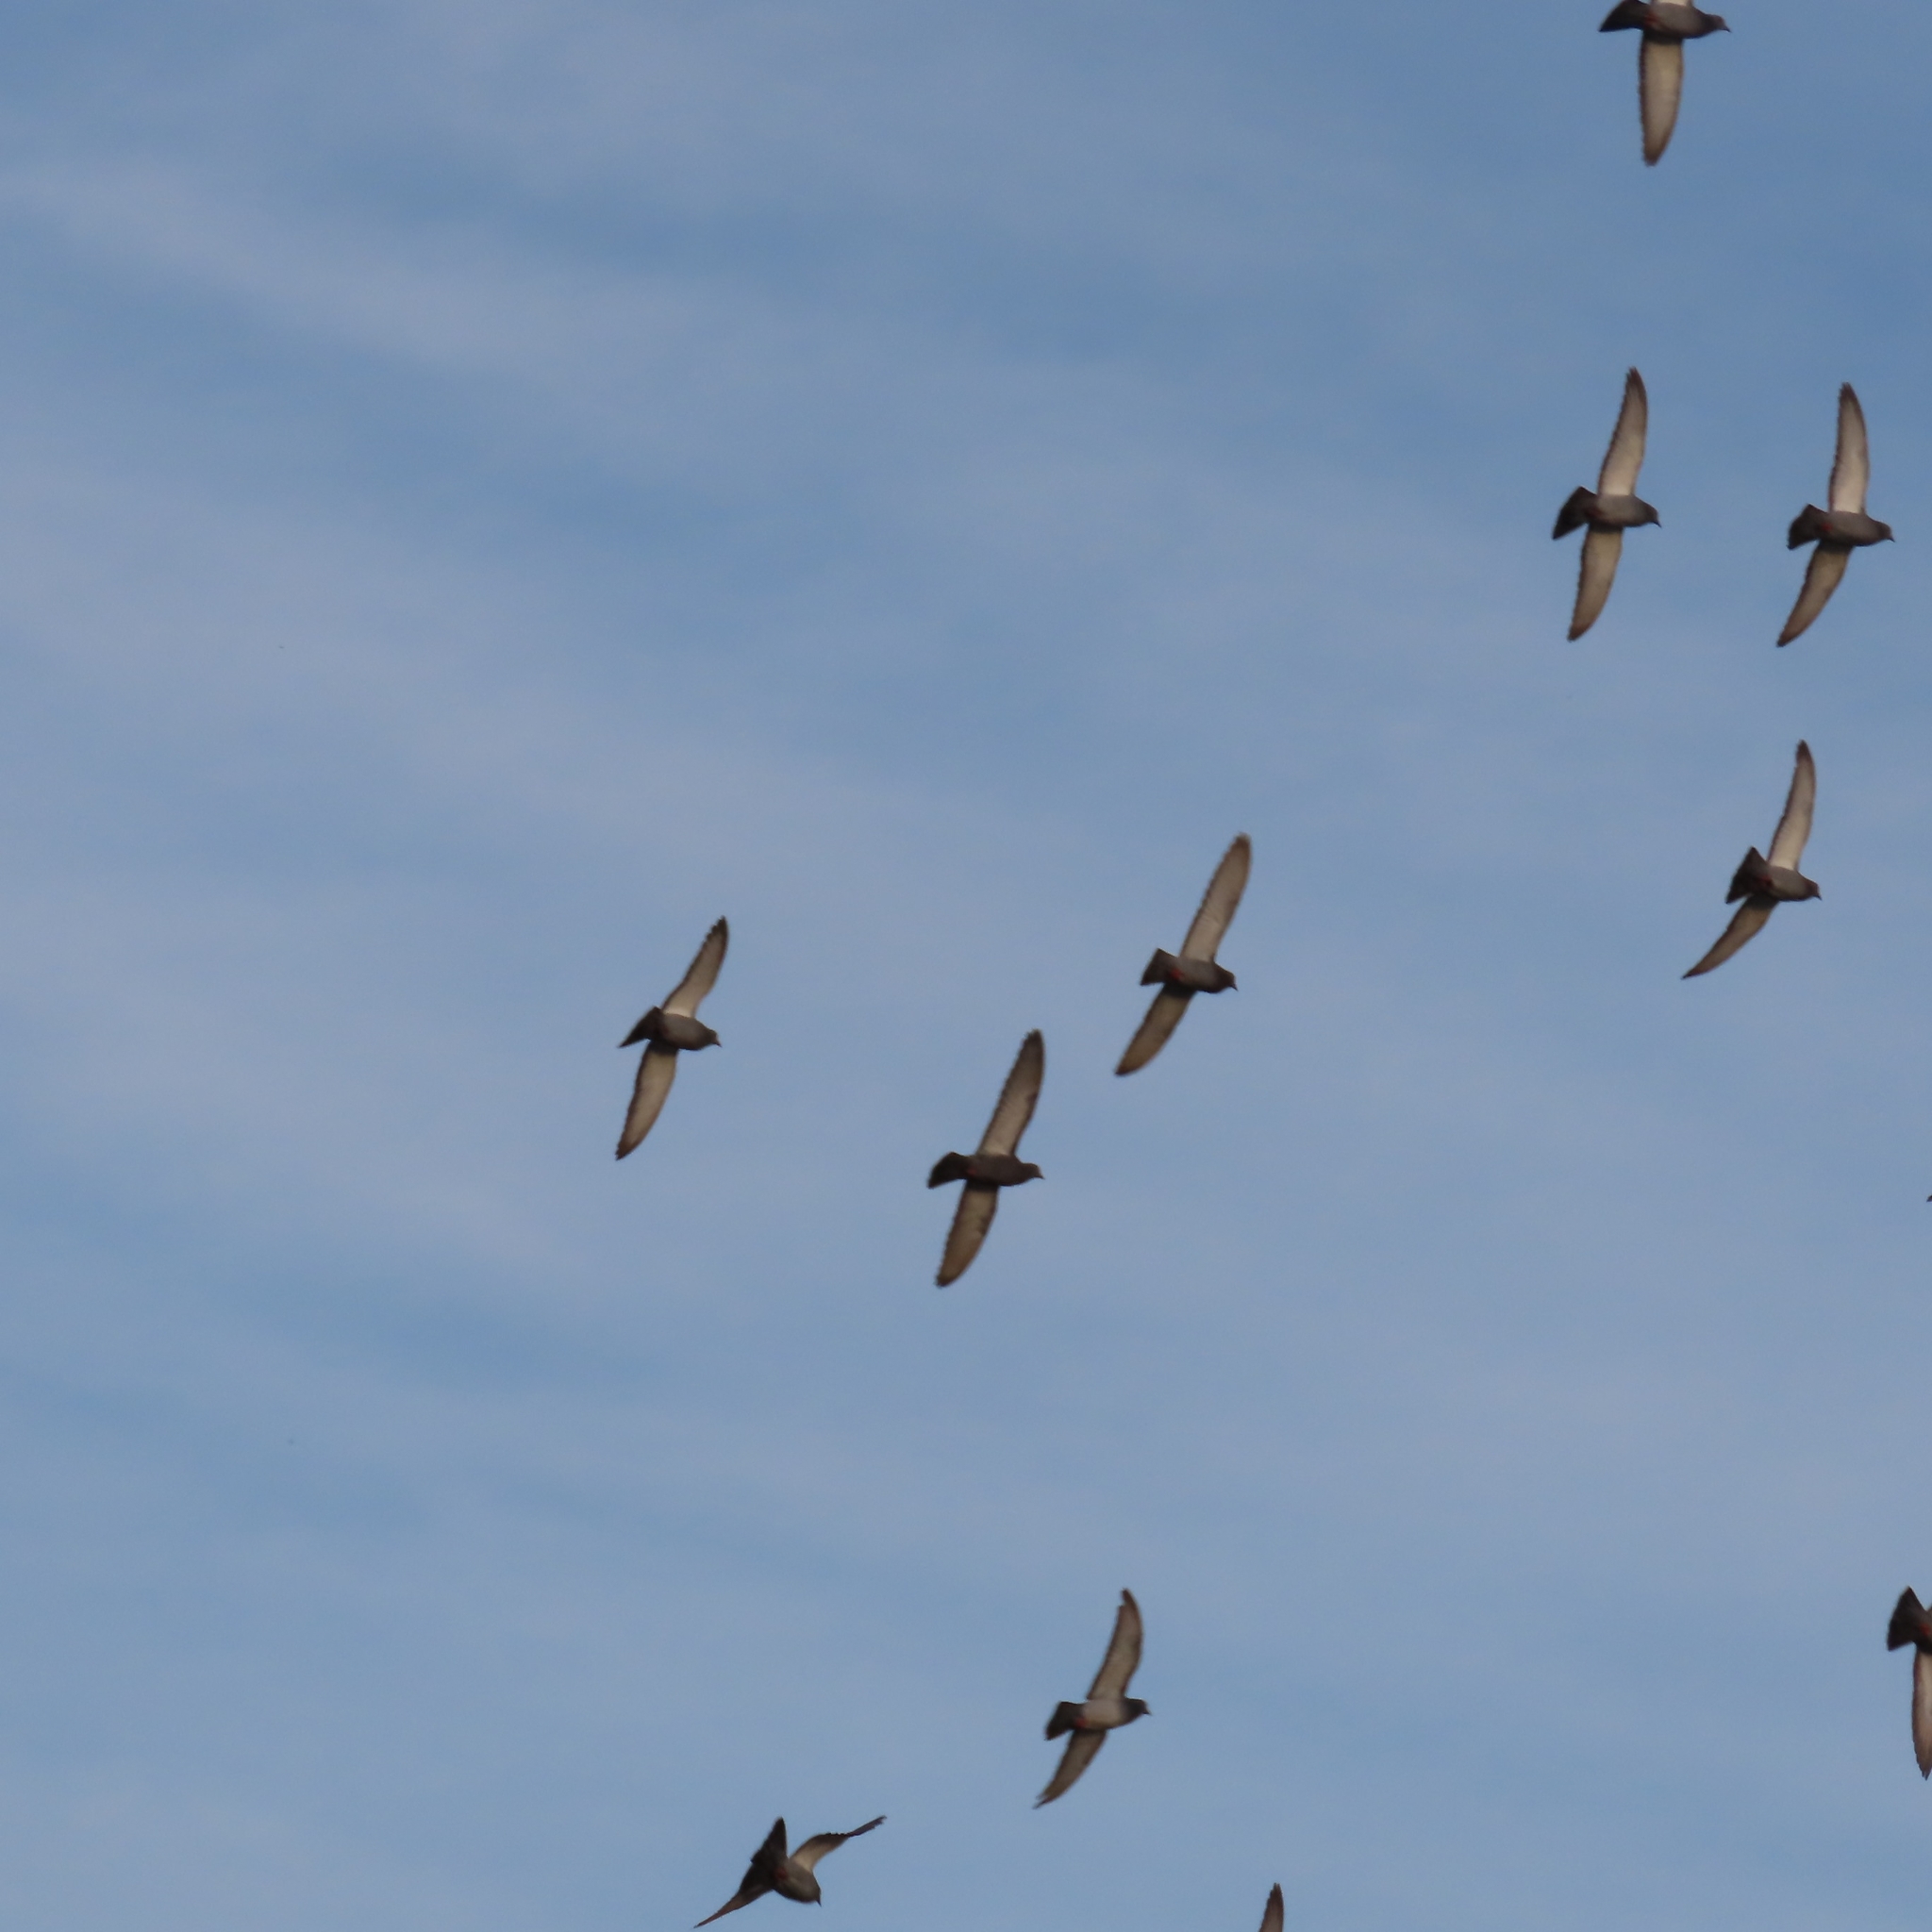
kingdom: Animalia
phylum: Chordata
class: Aves
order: Columbiformes
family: Columbidae
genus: Columba
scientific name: Columba livia
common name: Rock pigeon
